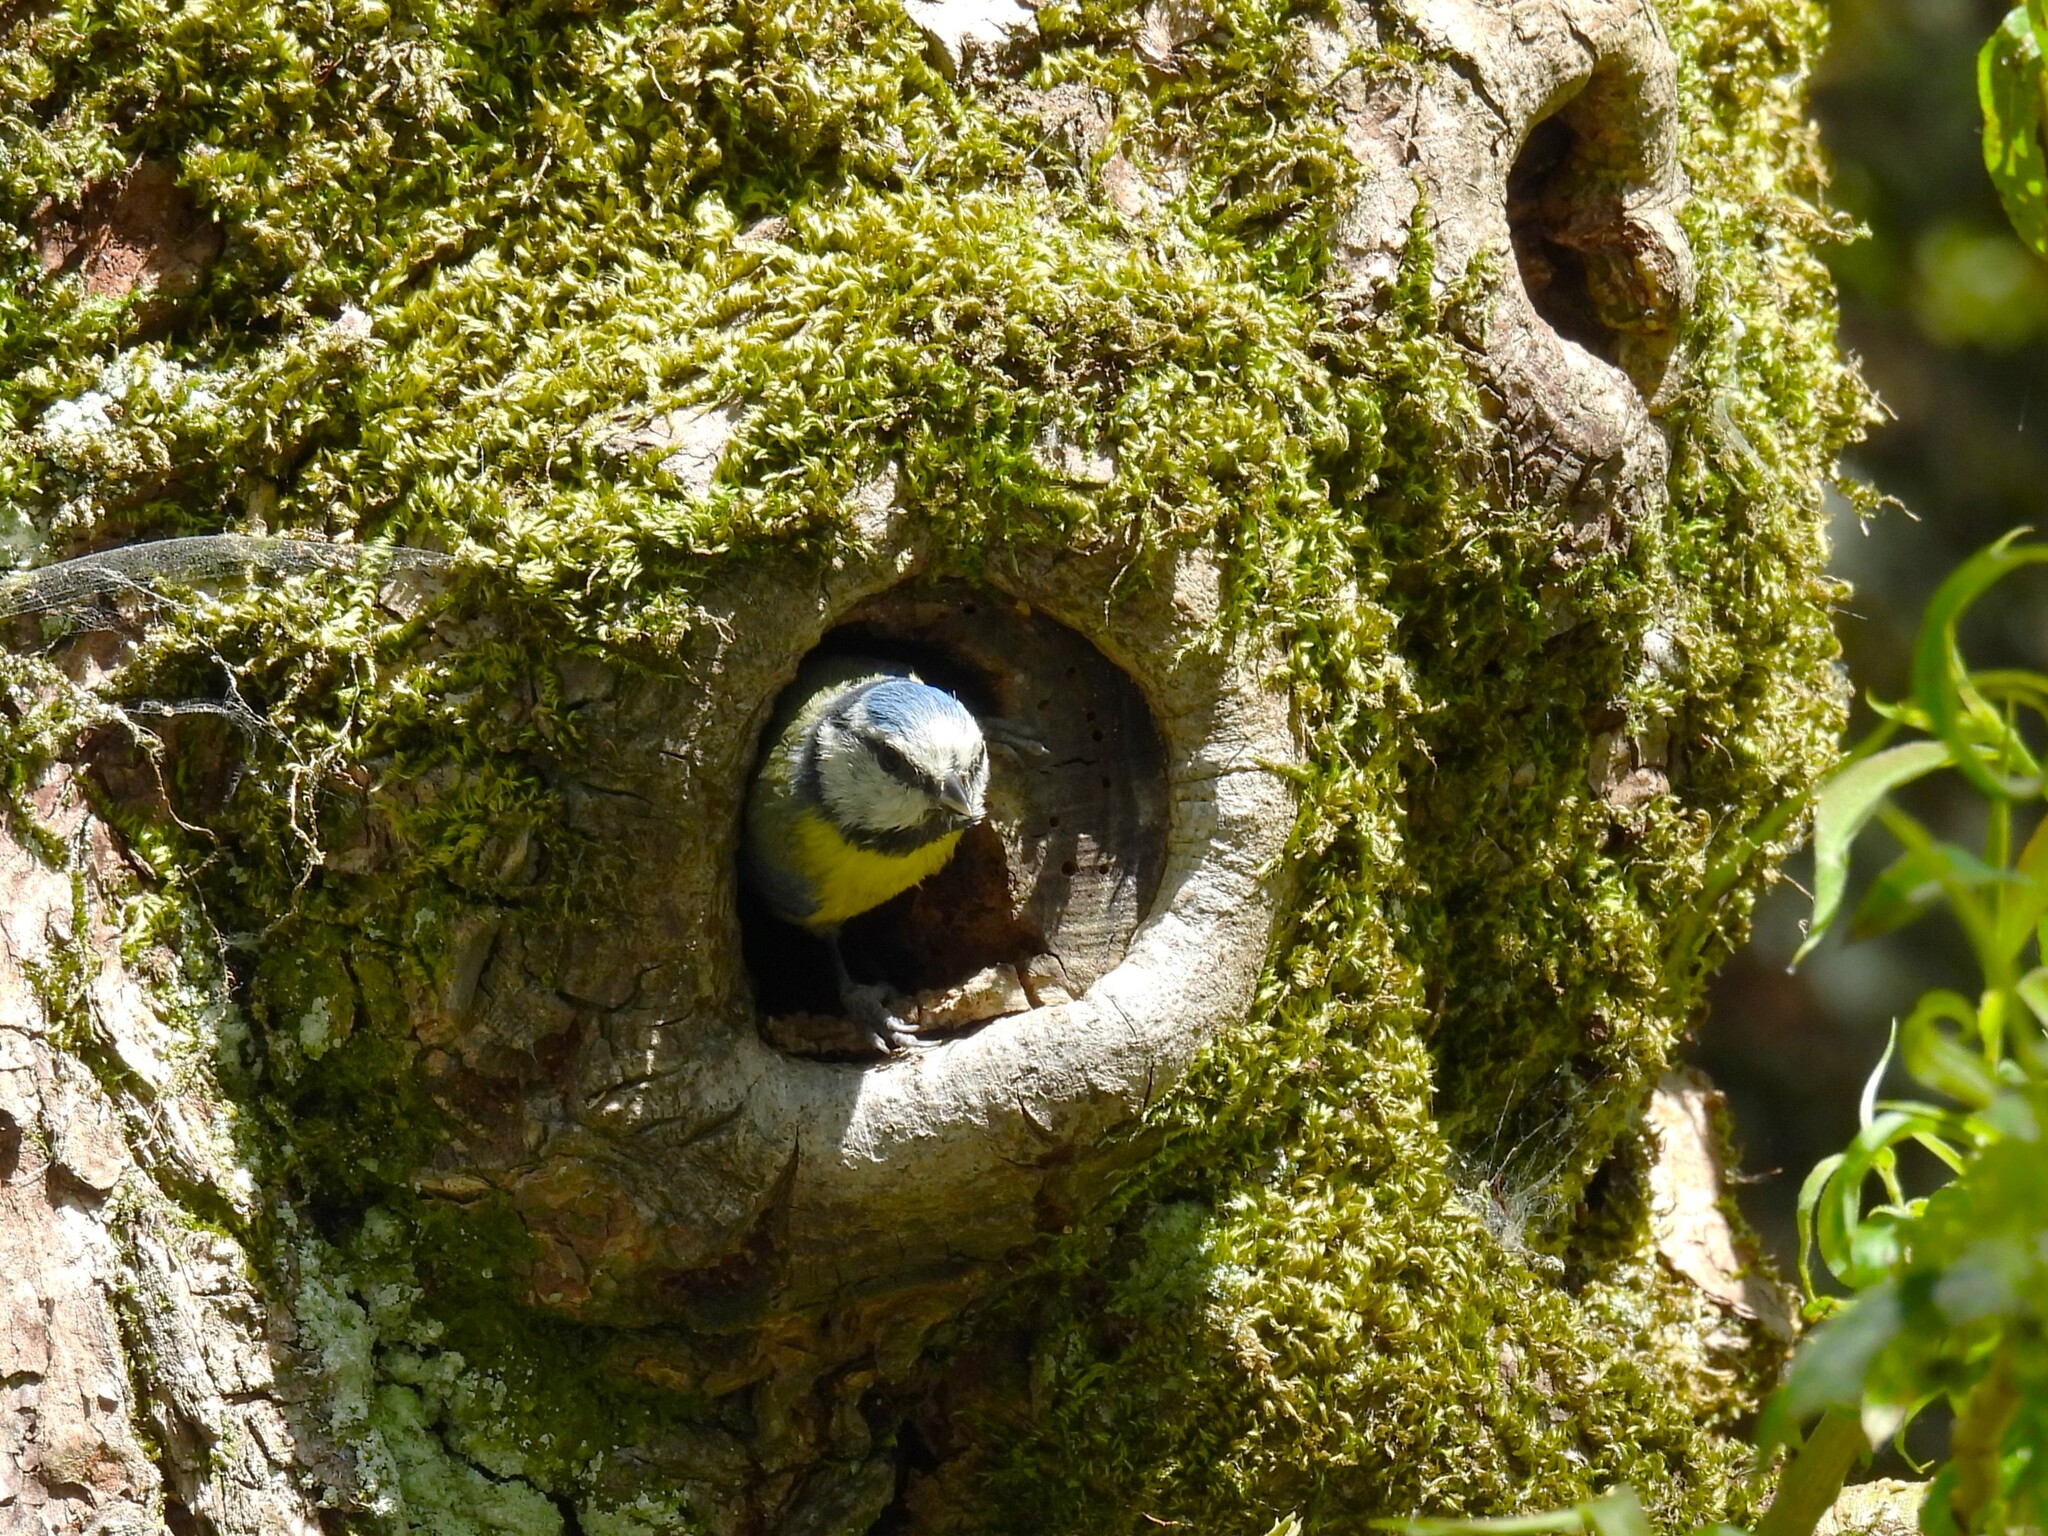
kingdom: Animalia
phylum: Chordata
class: Aves
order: Passeriformes
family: Paridae
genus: Cyanistes
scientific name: Cyanistes caeruleus
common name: Eurasian blue tit
